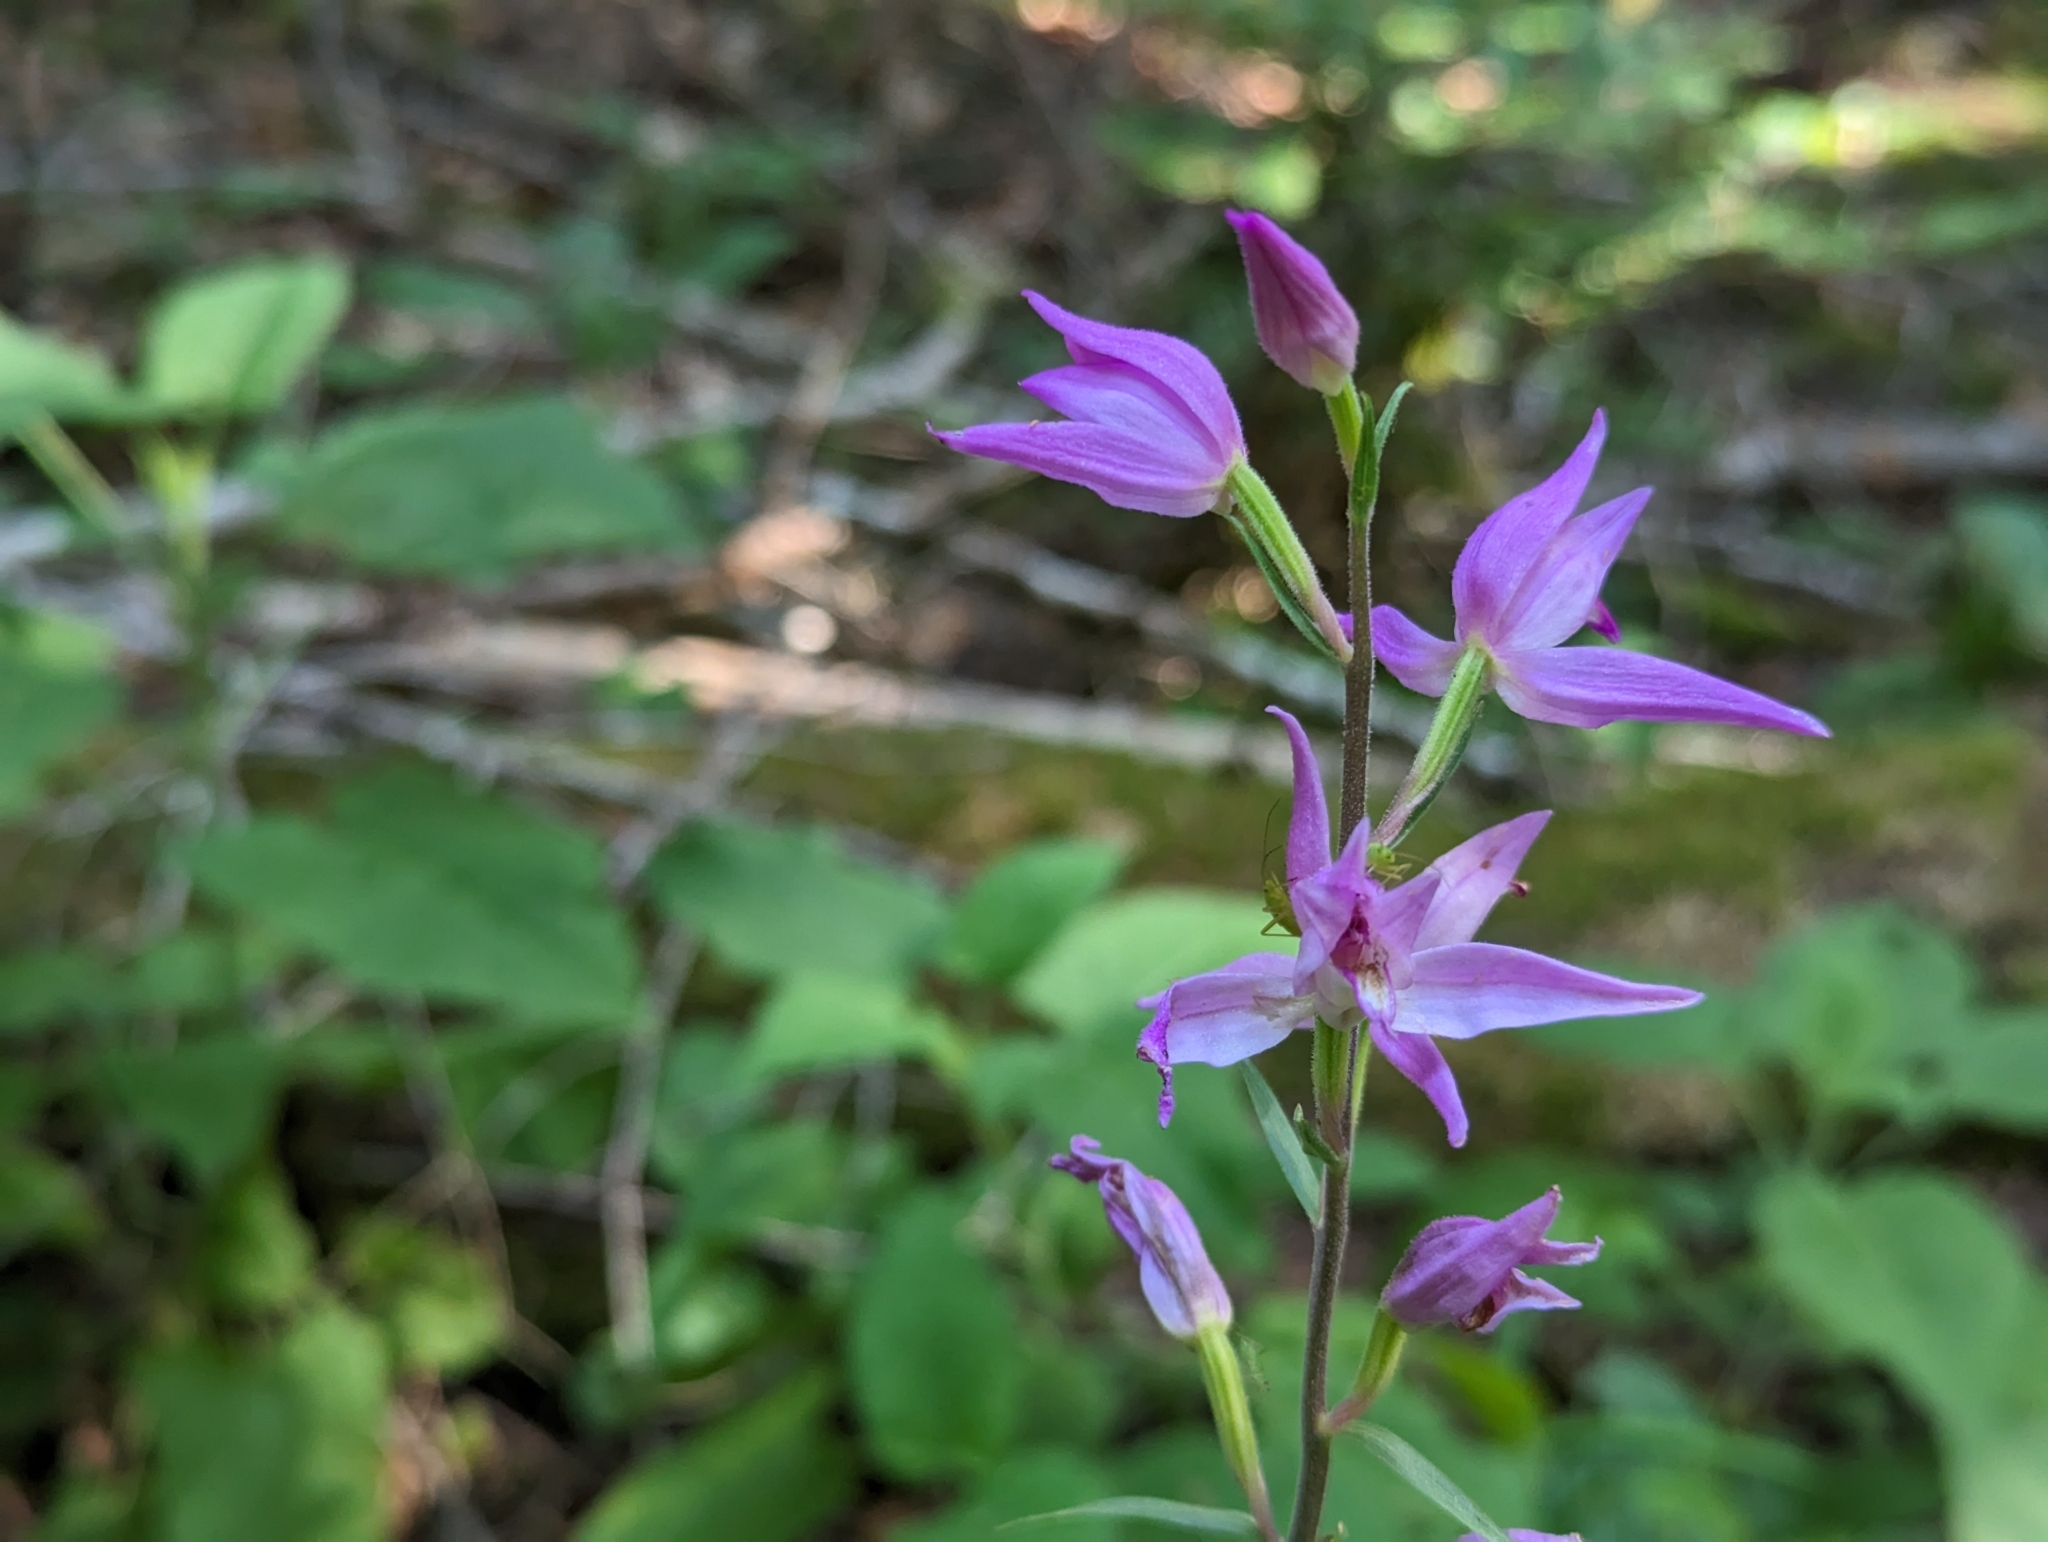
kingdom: Plantae
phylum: Tracheophyta
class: Liliopsida
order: Asparagales
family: Orchidaceae
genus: Cephalanthera
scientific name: Cephalanthera rubra
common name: Red helleborine
